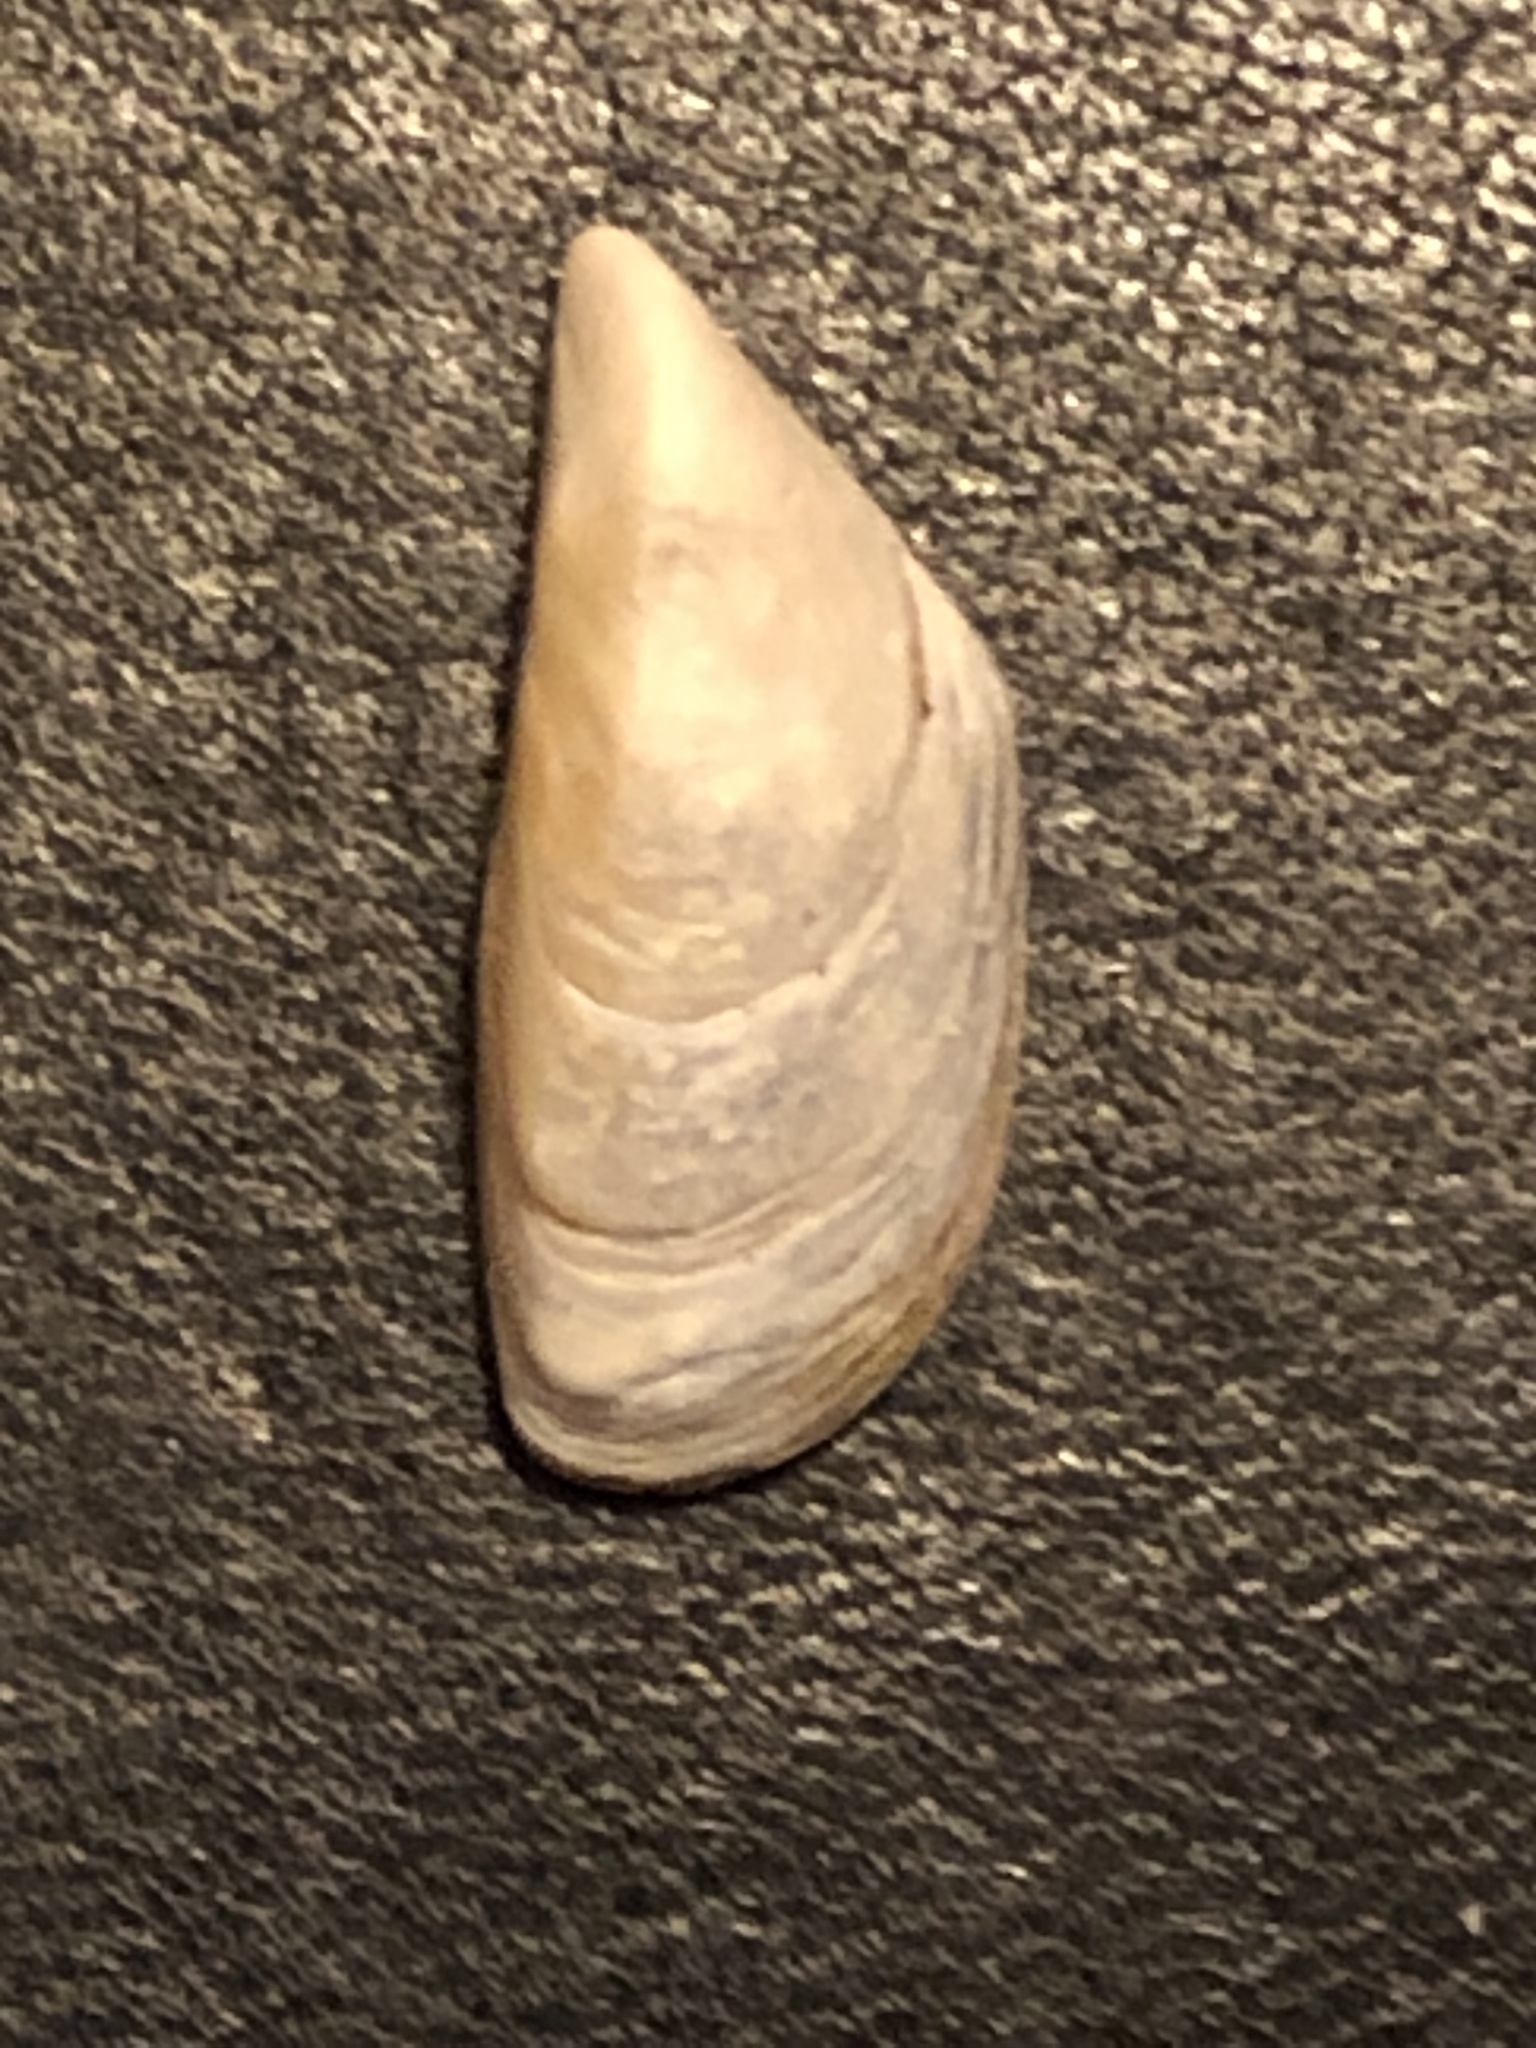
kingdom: Animalia
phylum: Mollusca
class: Bivalvia
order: Myida
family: Dreissenidae
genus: Dreissena
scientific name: Dreissena polymorpha
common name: Zebra mussel
